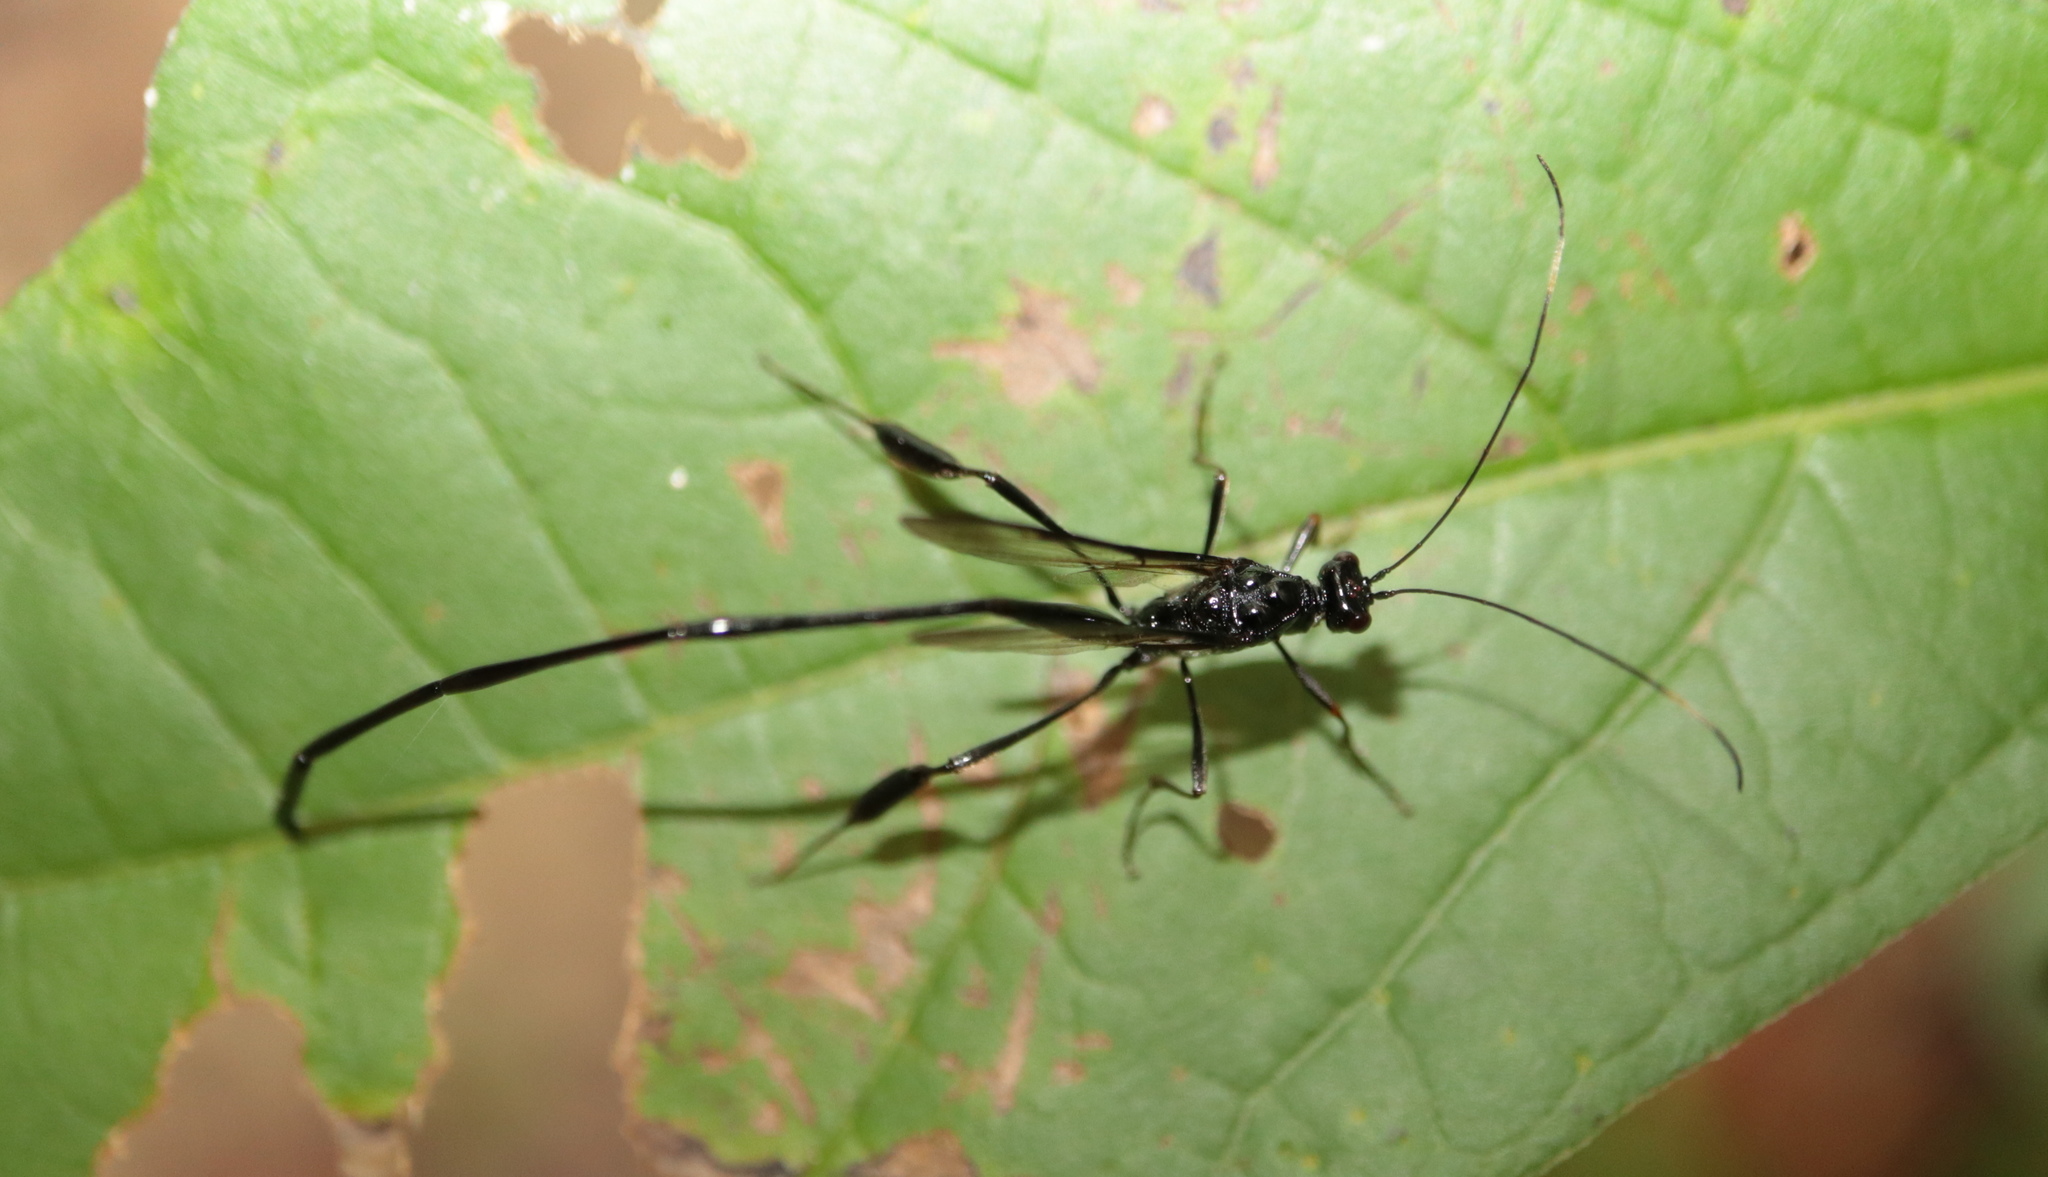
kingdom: Animalia
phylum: Arthropoda
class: Insecta
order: Hymenoptera
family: Pelecinidae
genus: Pelecinus
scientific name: Pelecinus polyturator
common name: American pelecinid wasp
